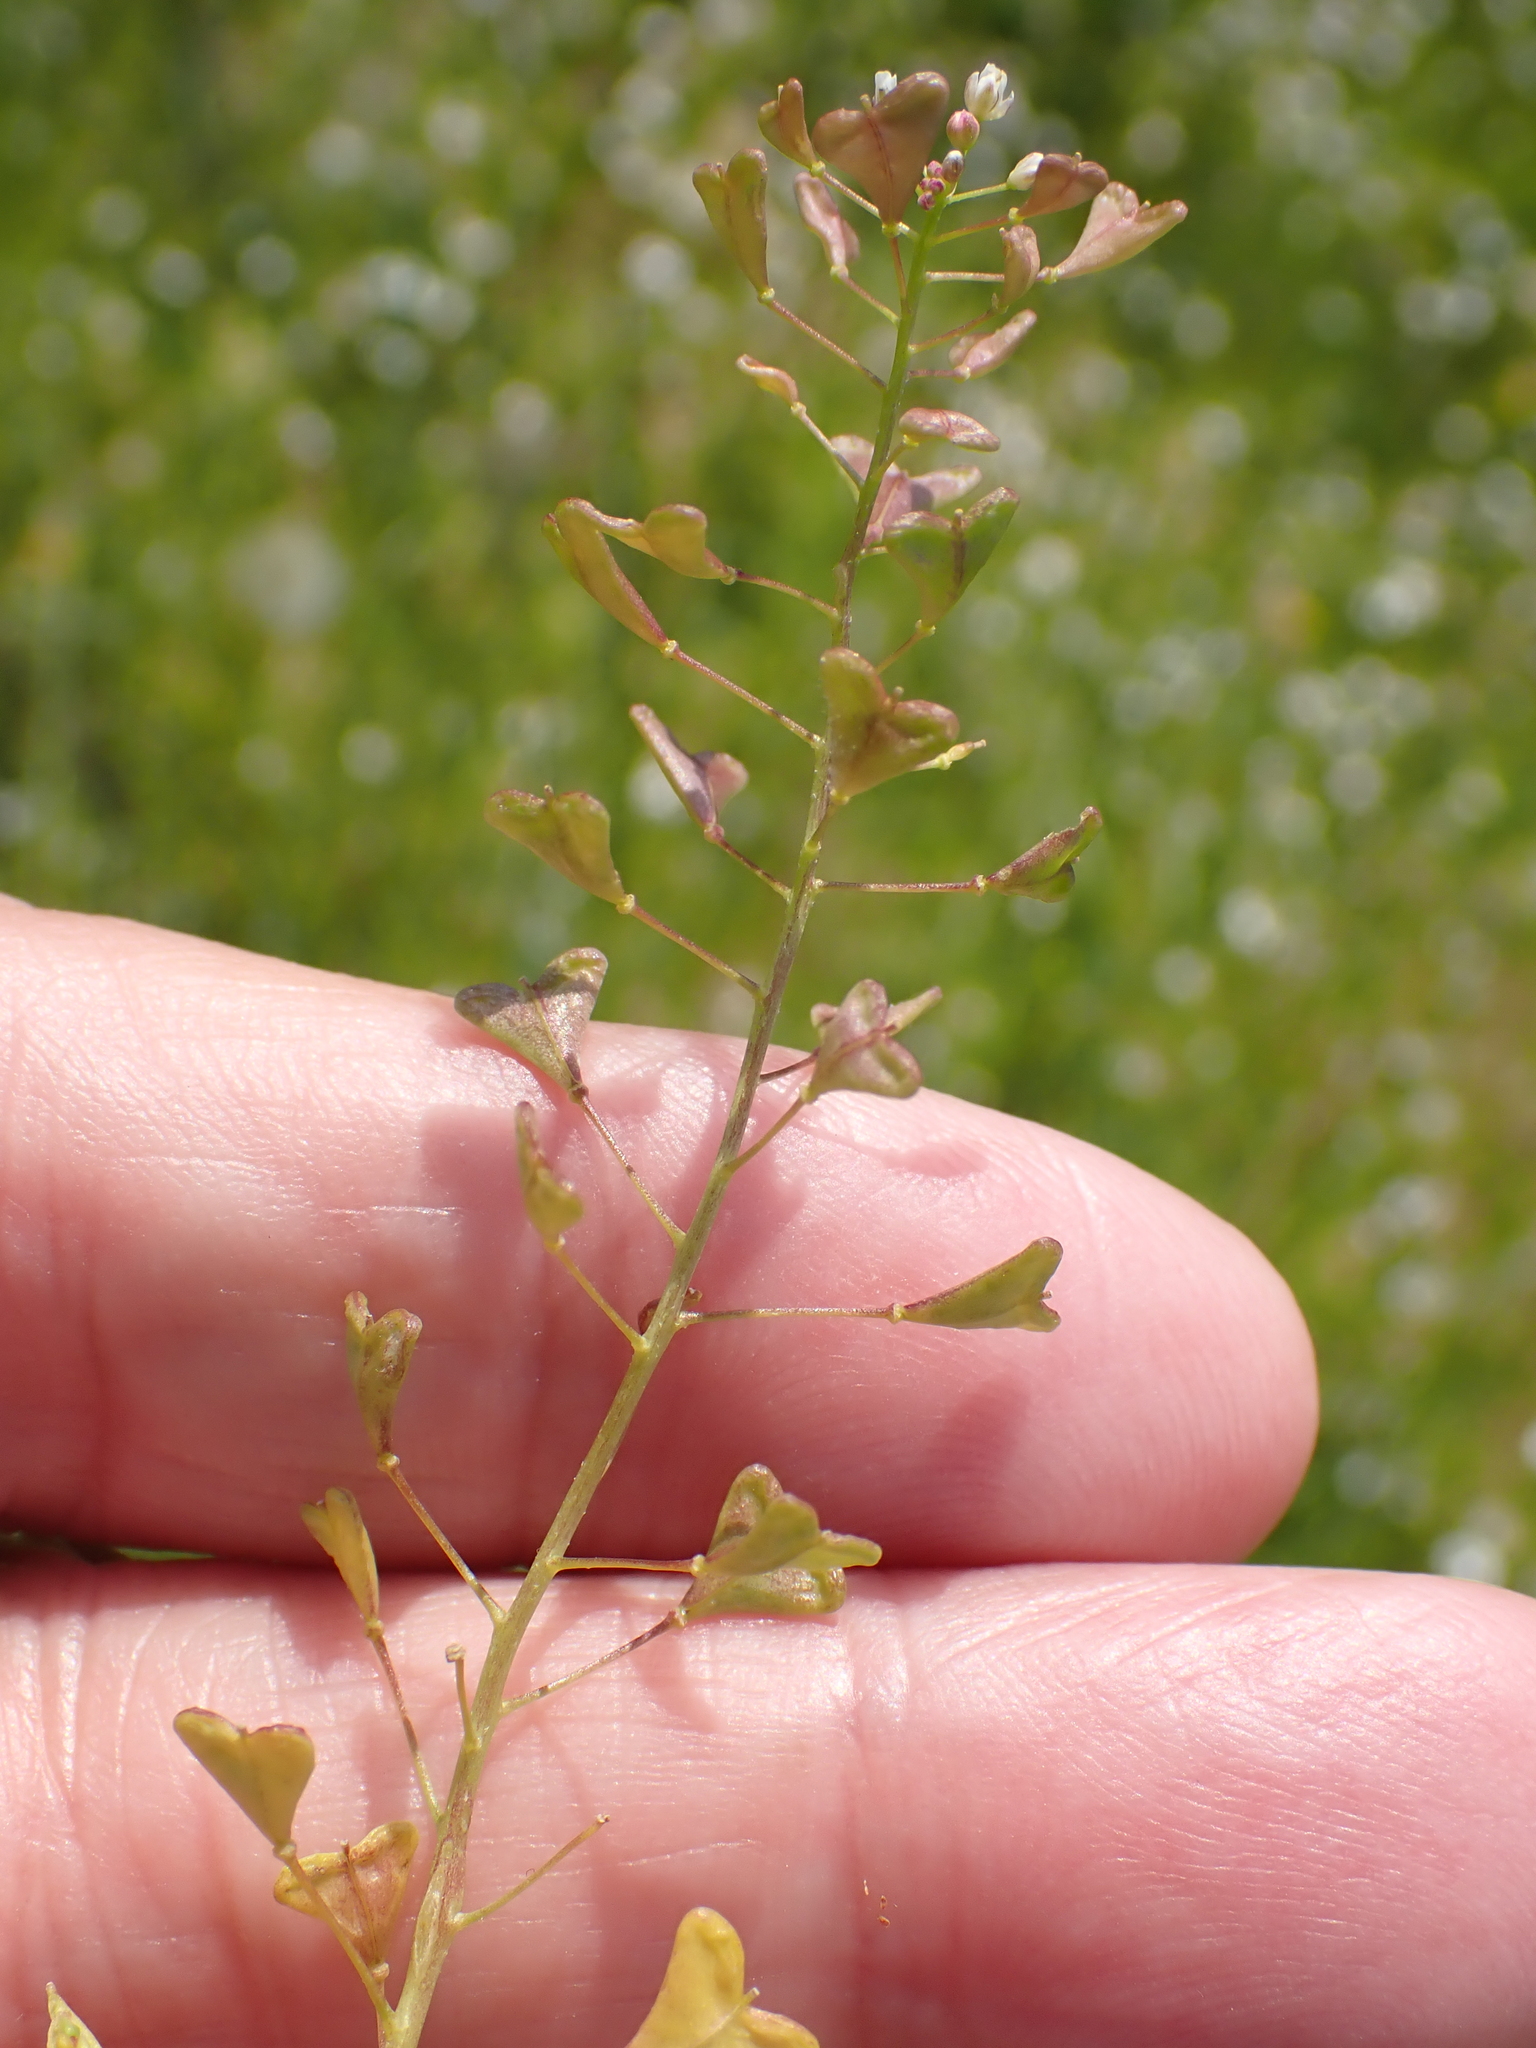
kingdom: Plantae
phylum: Tracheophyta
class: Magnoliopsida
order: Brassicales
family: Brassicaceae
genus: Capsella
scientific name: Capsella bursa-pastoris
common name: Shepherd's purse
